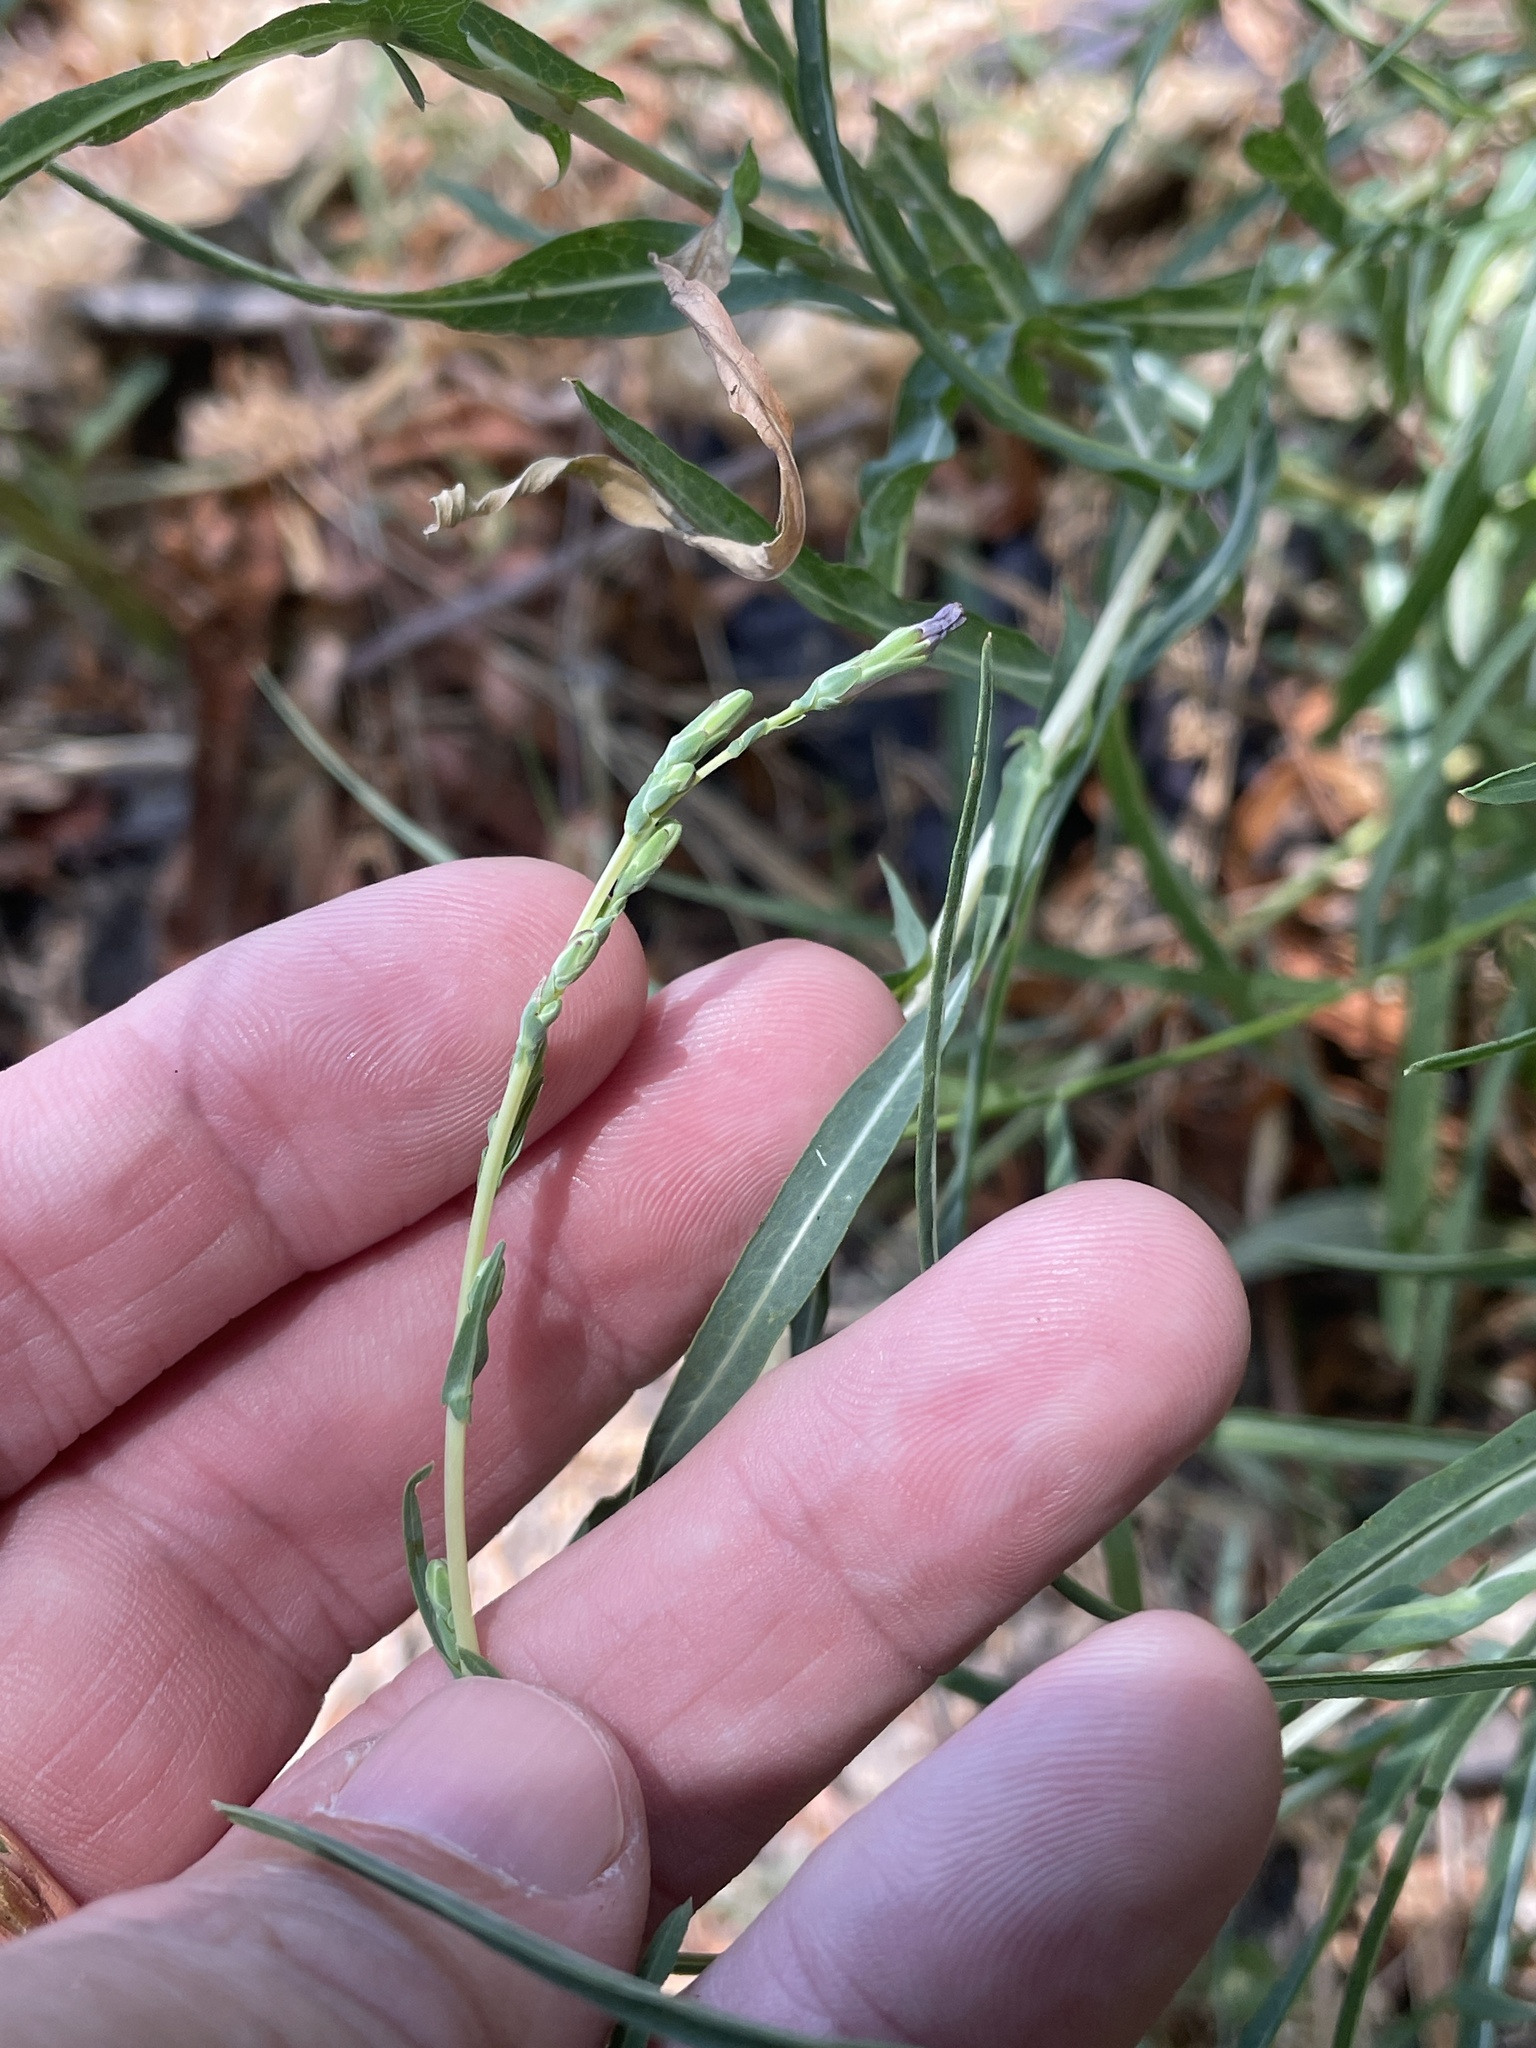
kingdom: Plantae
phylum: Tracheophyta
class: Magnoliopsida
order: Asterales
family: Asteraceae
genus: Lactuca
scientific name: Lactuca saligna
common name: Wild lettuce
